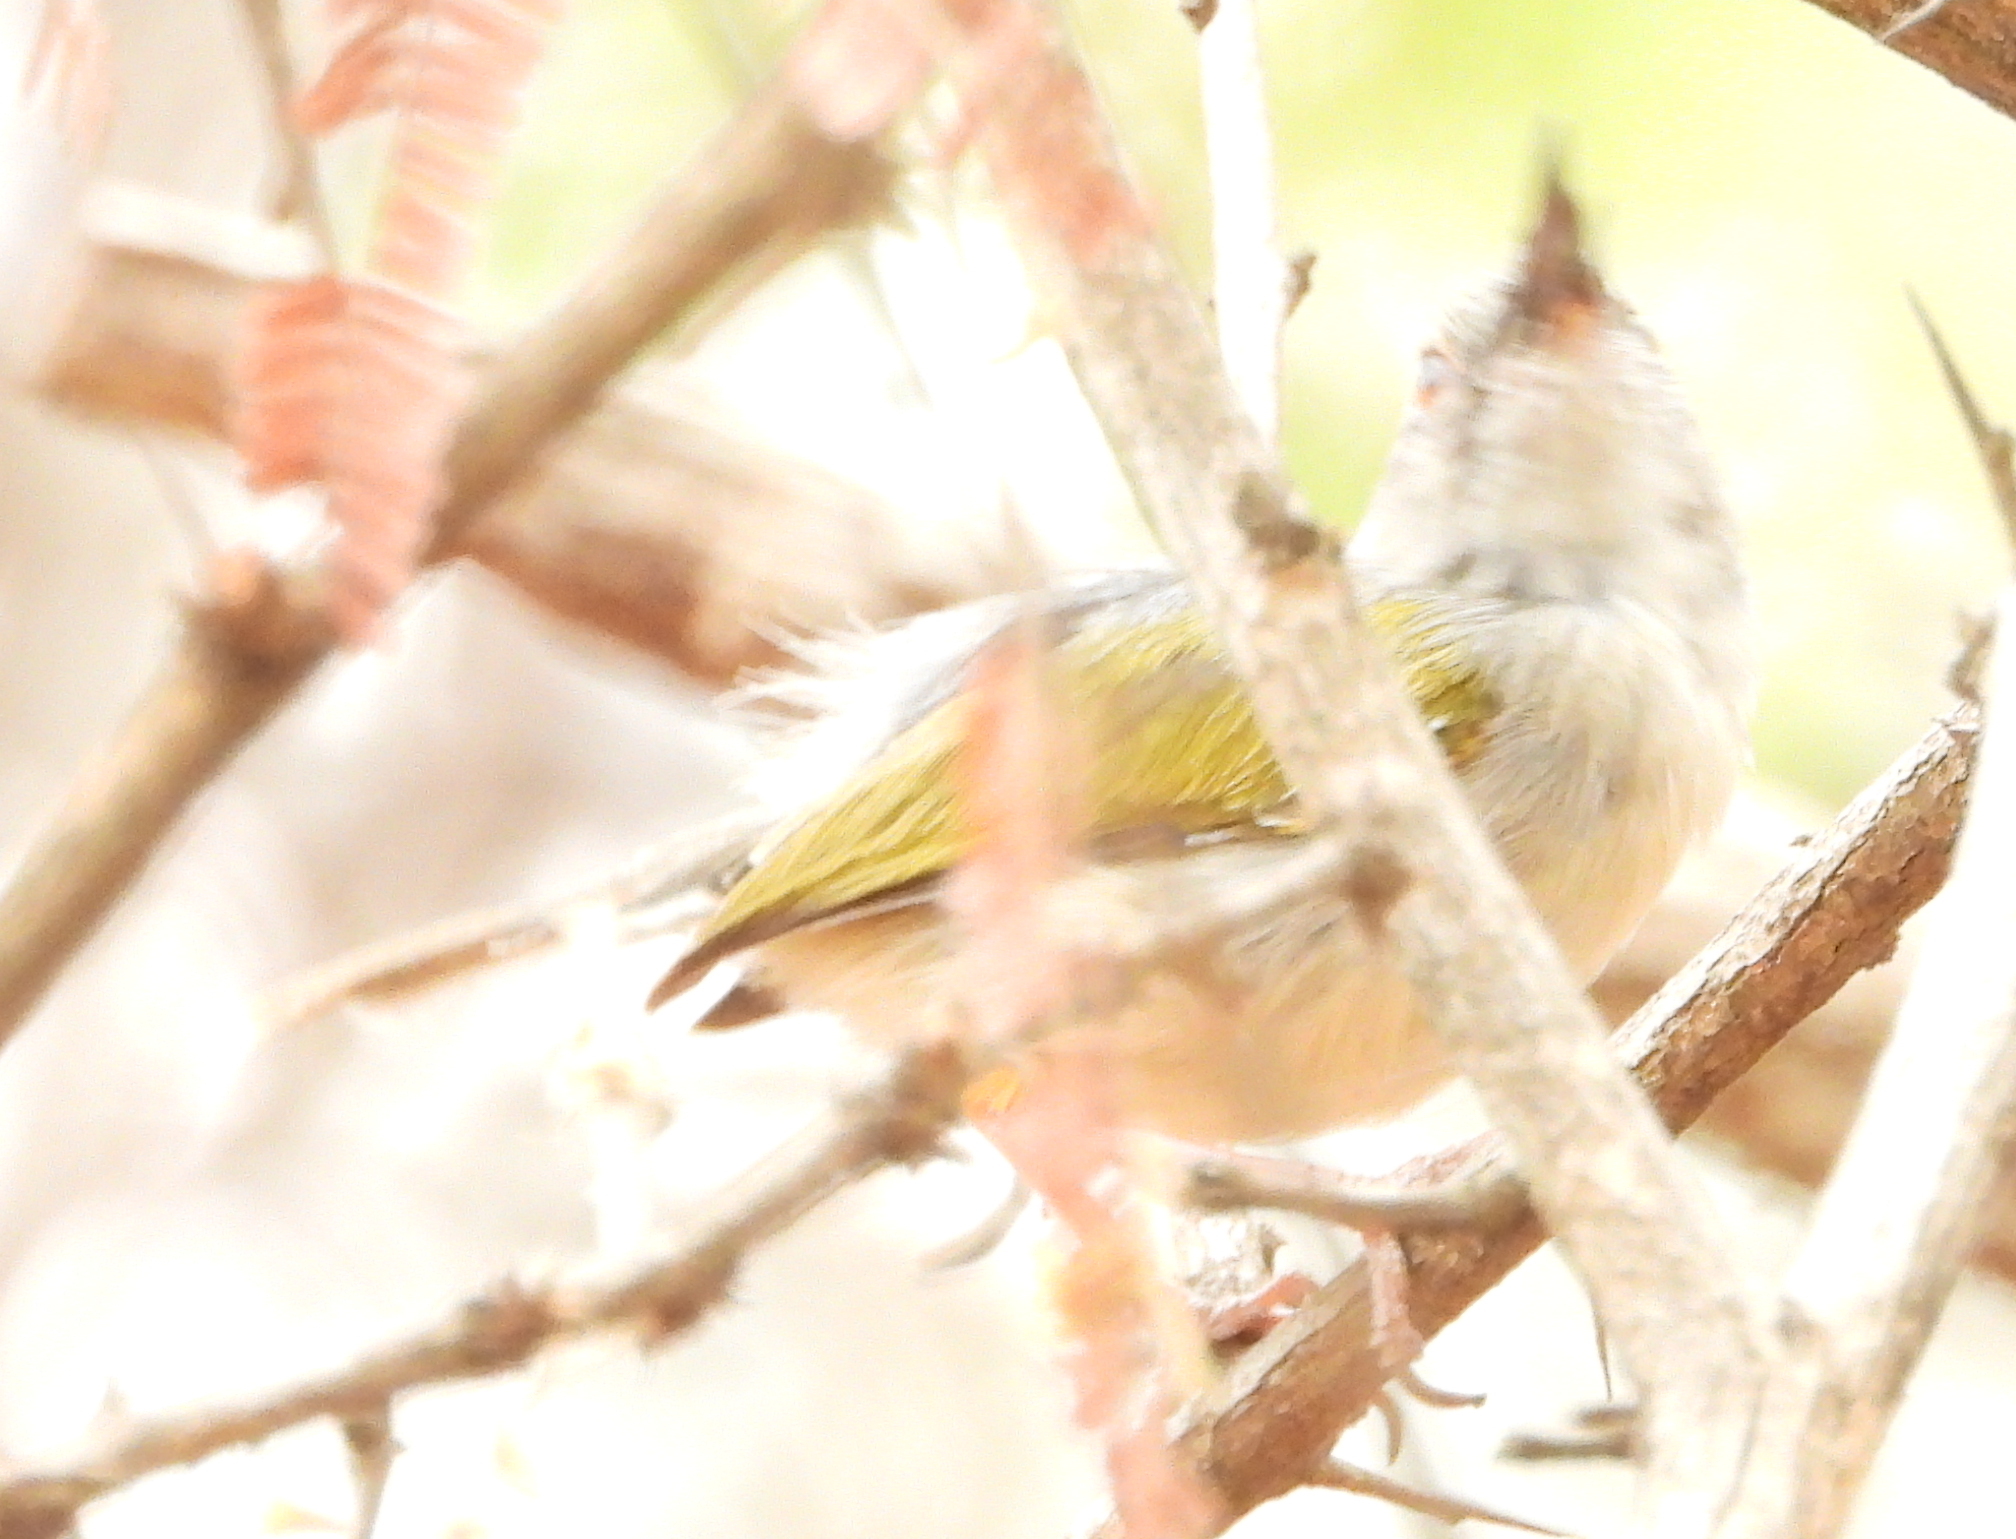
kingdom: Animalia
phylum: Chordata
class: Aves
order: Passeriformes
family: Cisticolidae
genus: Camaroptera
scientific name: Camaroptera brachyura
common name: Green-backed camaroptera
